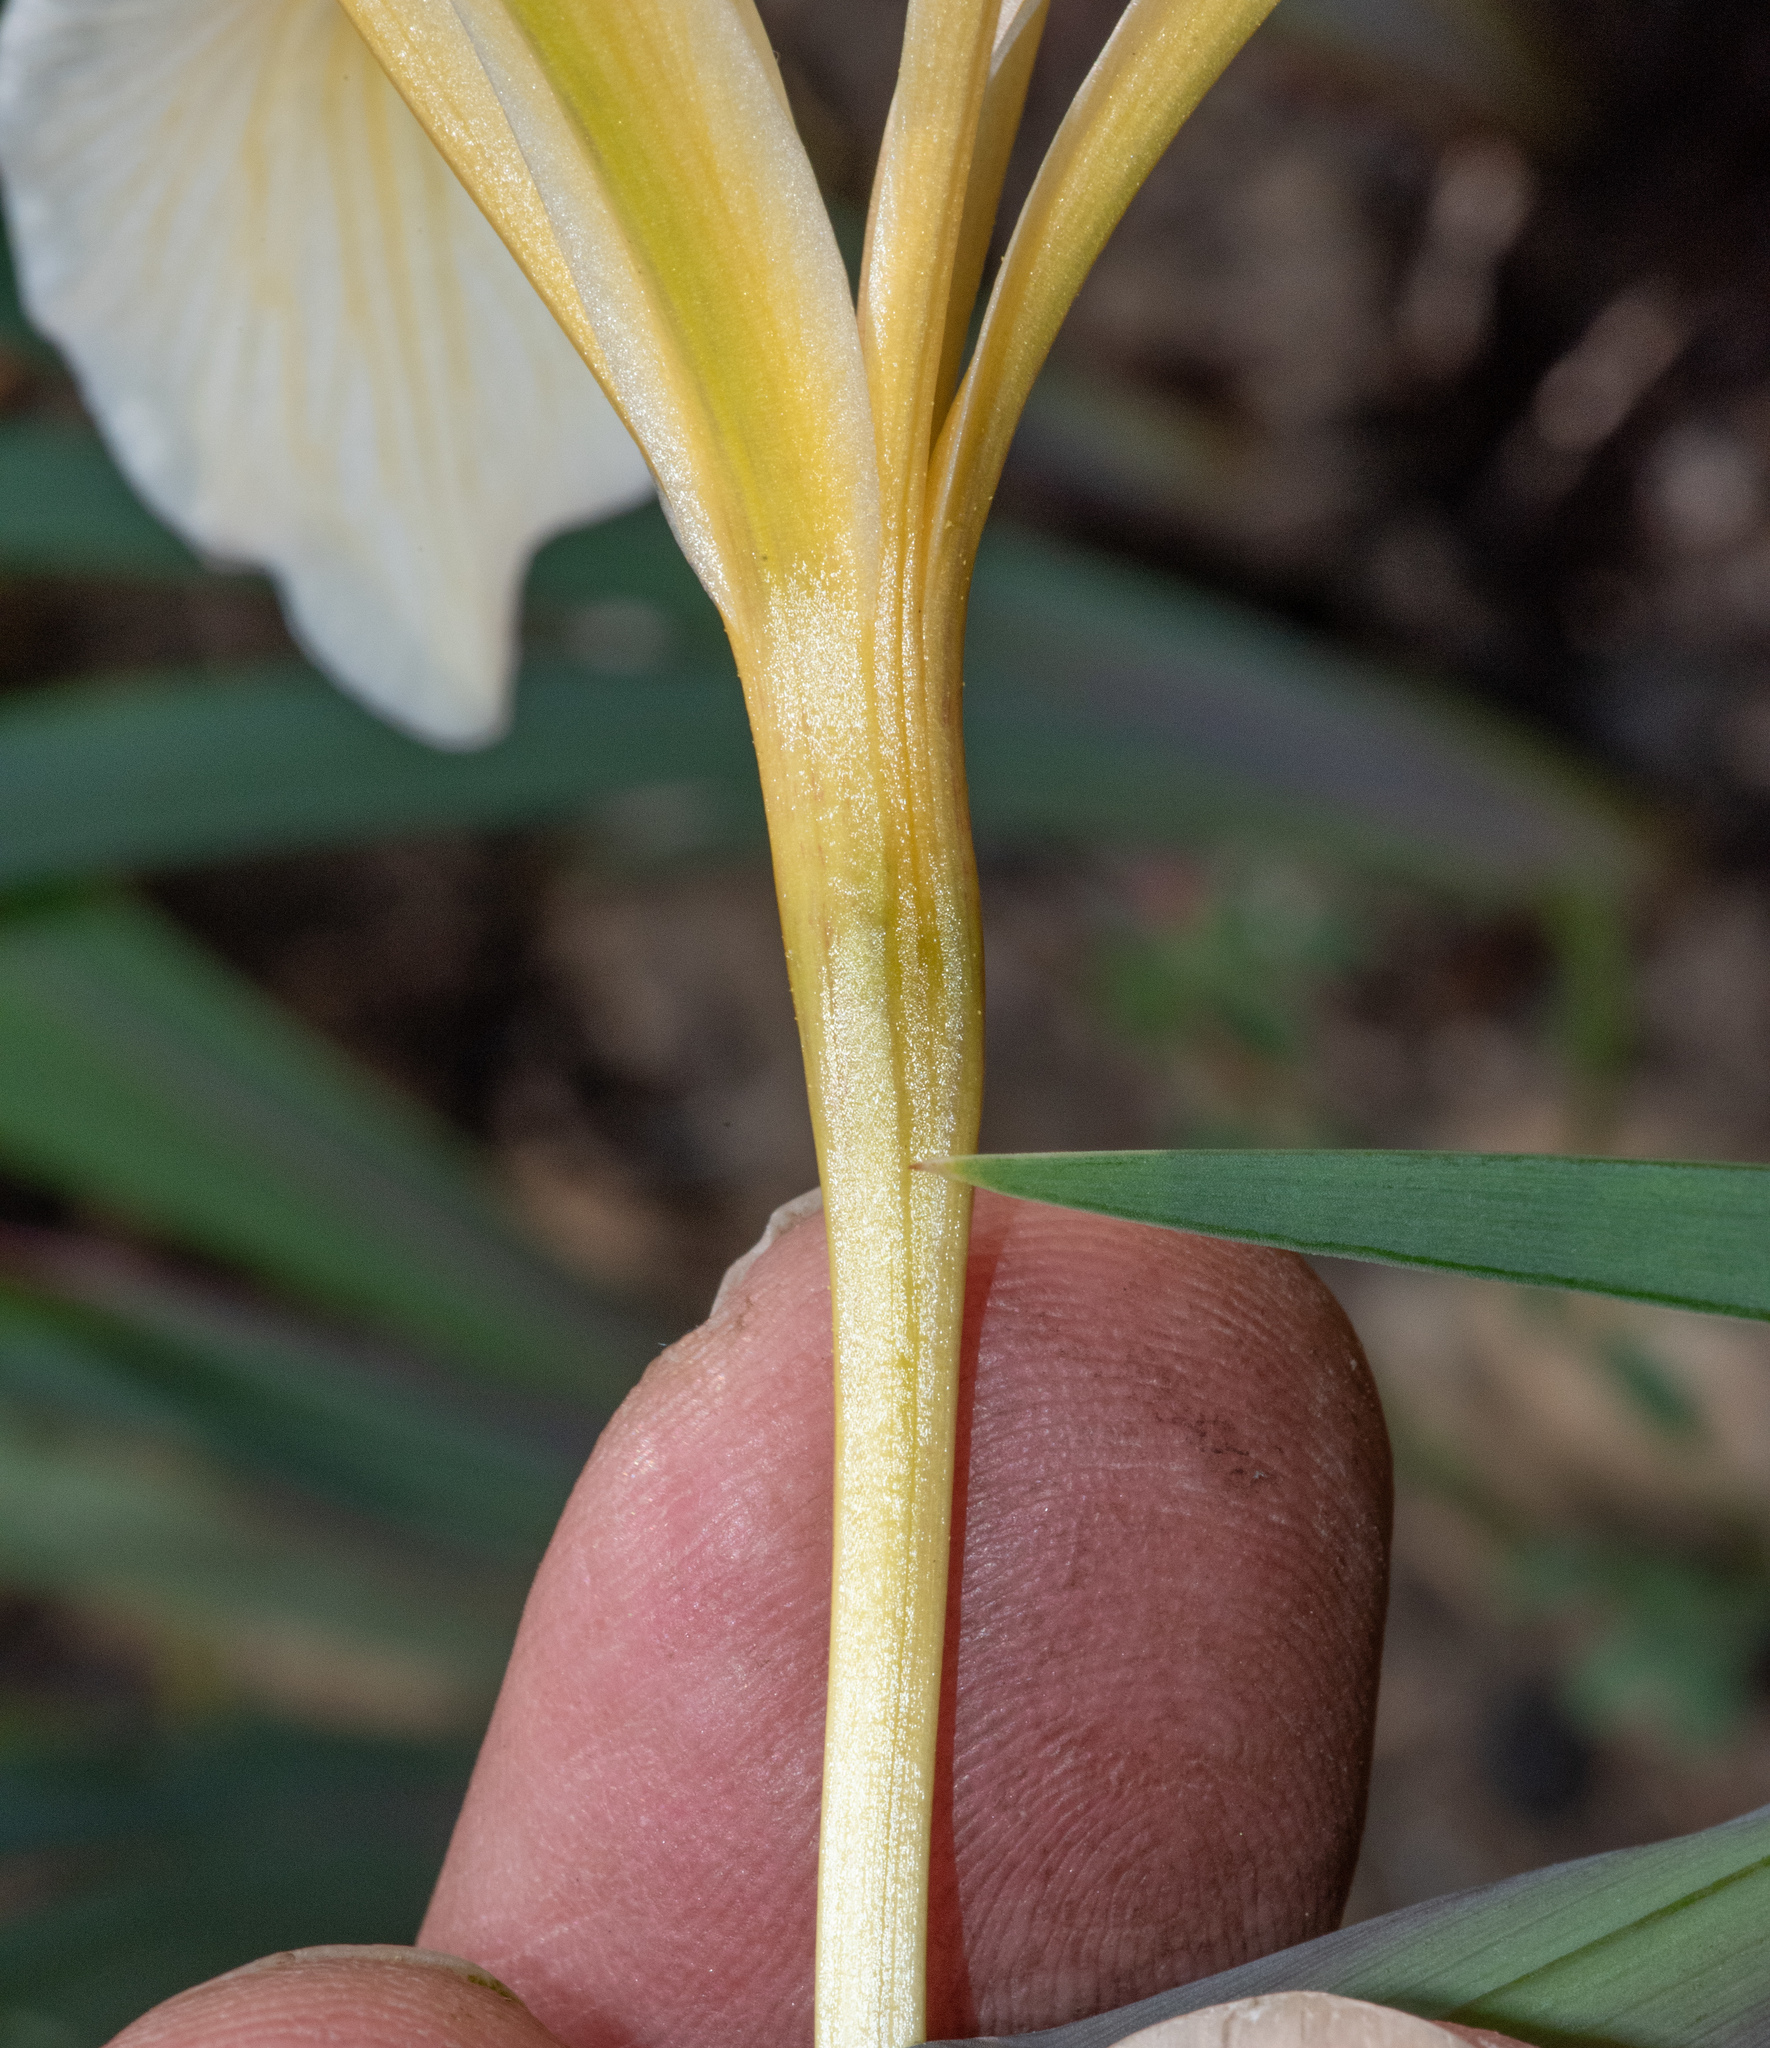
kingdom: Plantae
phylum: Tracheophyta
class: Liliopsida
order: Asparagales
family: Iridaceae
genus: Iris
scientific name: Iris fernaldii
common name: Fernald's iris
